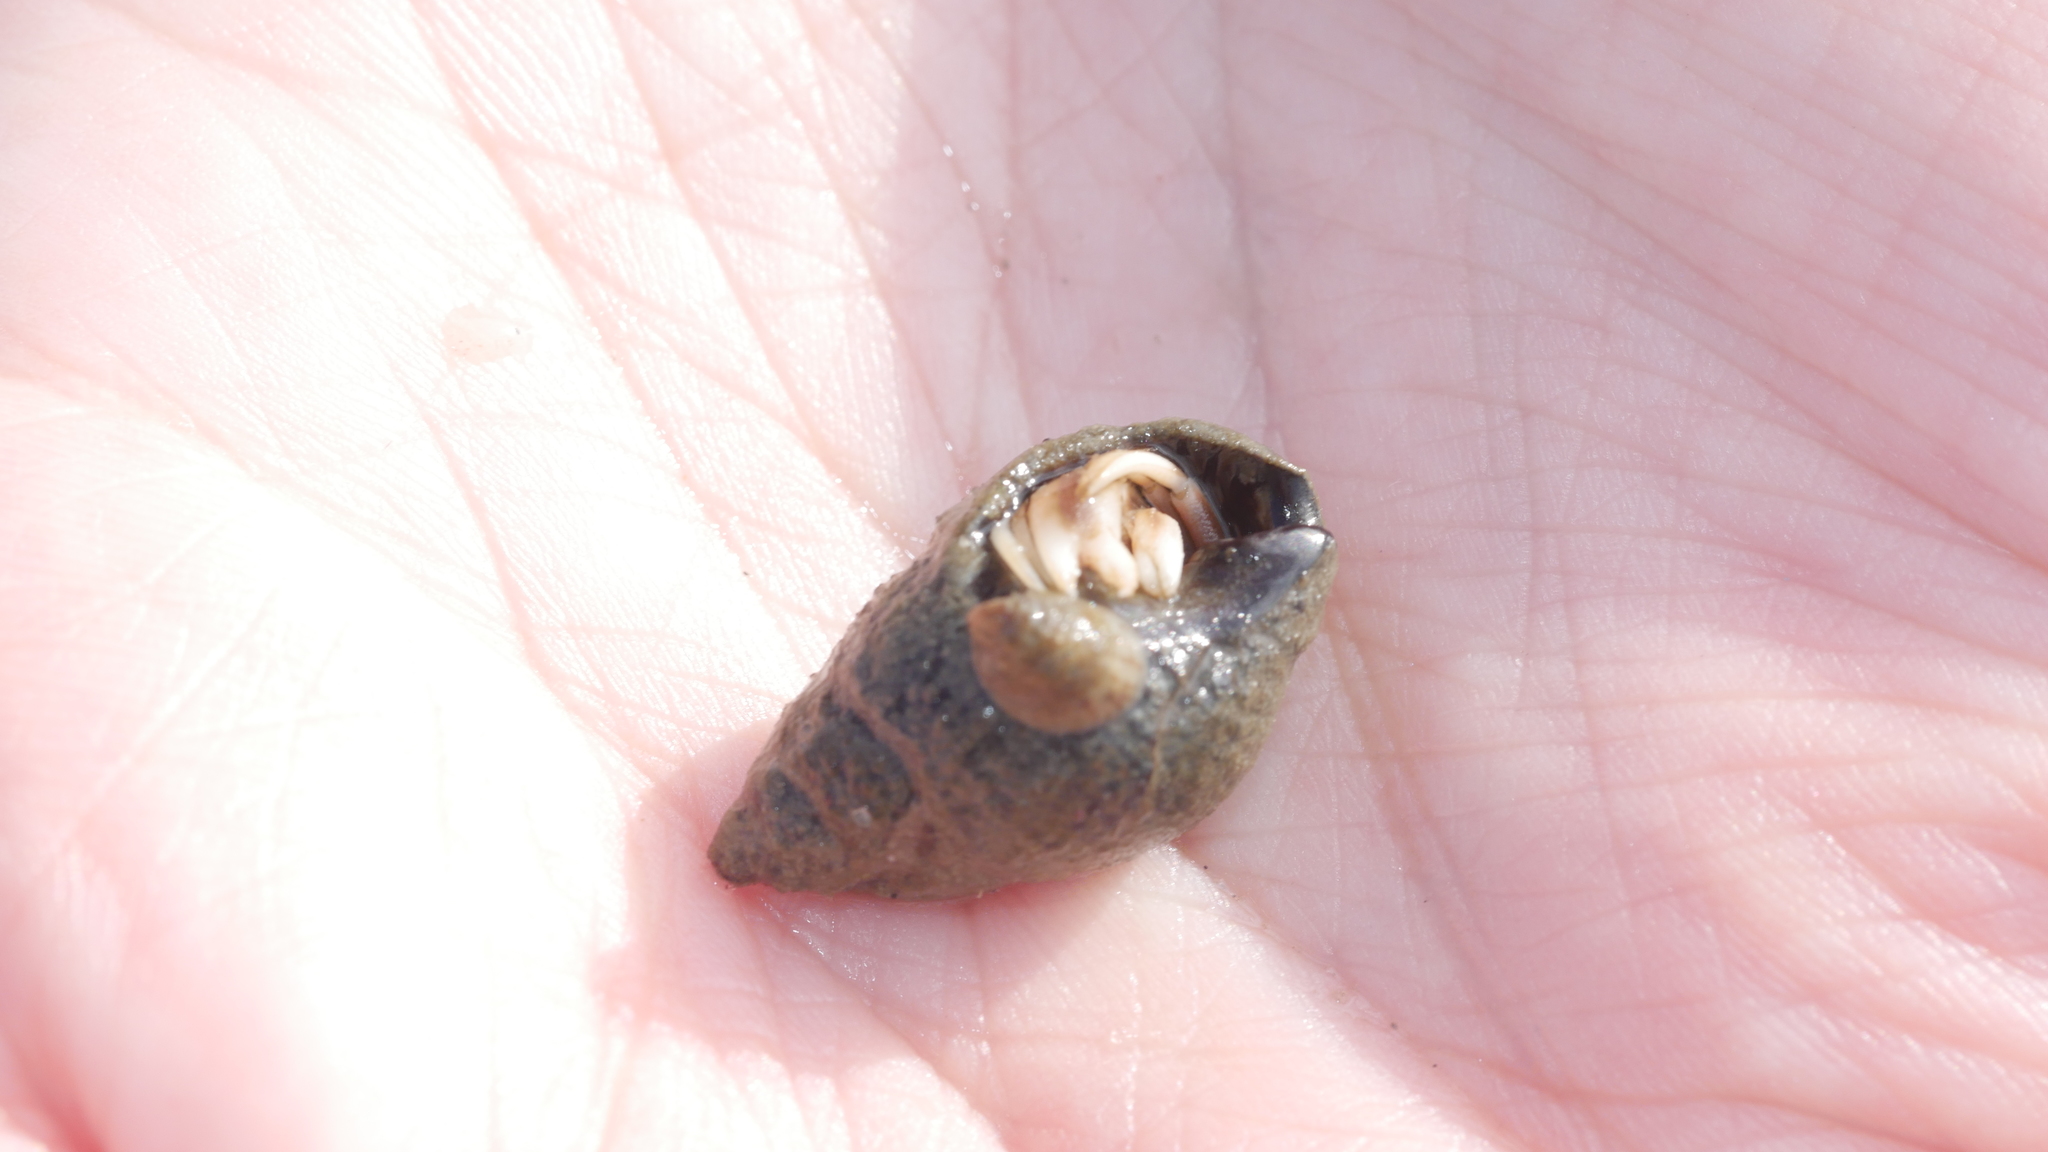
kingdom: Animalia
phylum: Arthropoda
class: Malacostraca
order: Decapoda
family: Paguridae
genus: Pagurus
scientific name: Pagurus longicarpus
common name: Long-armed hermit crab
